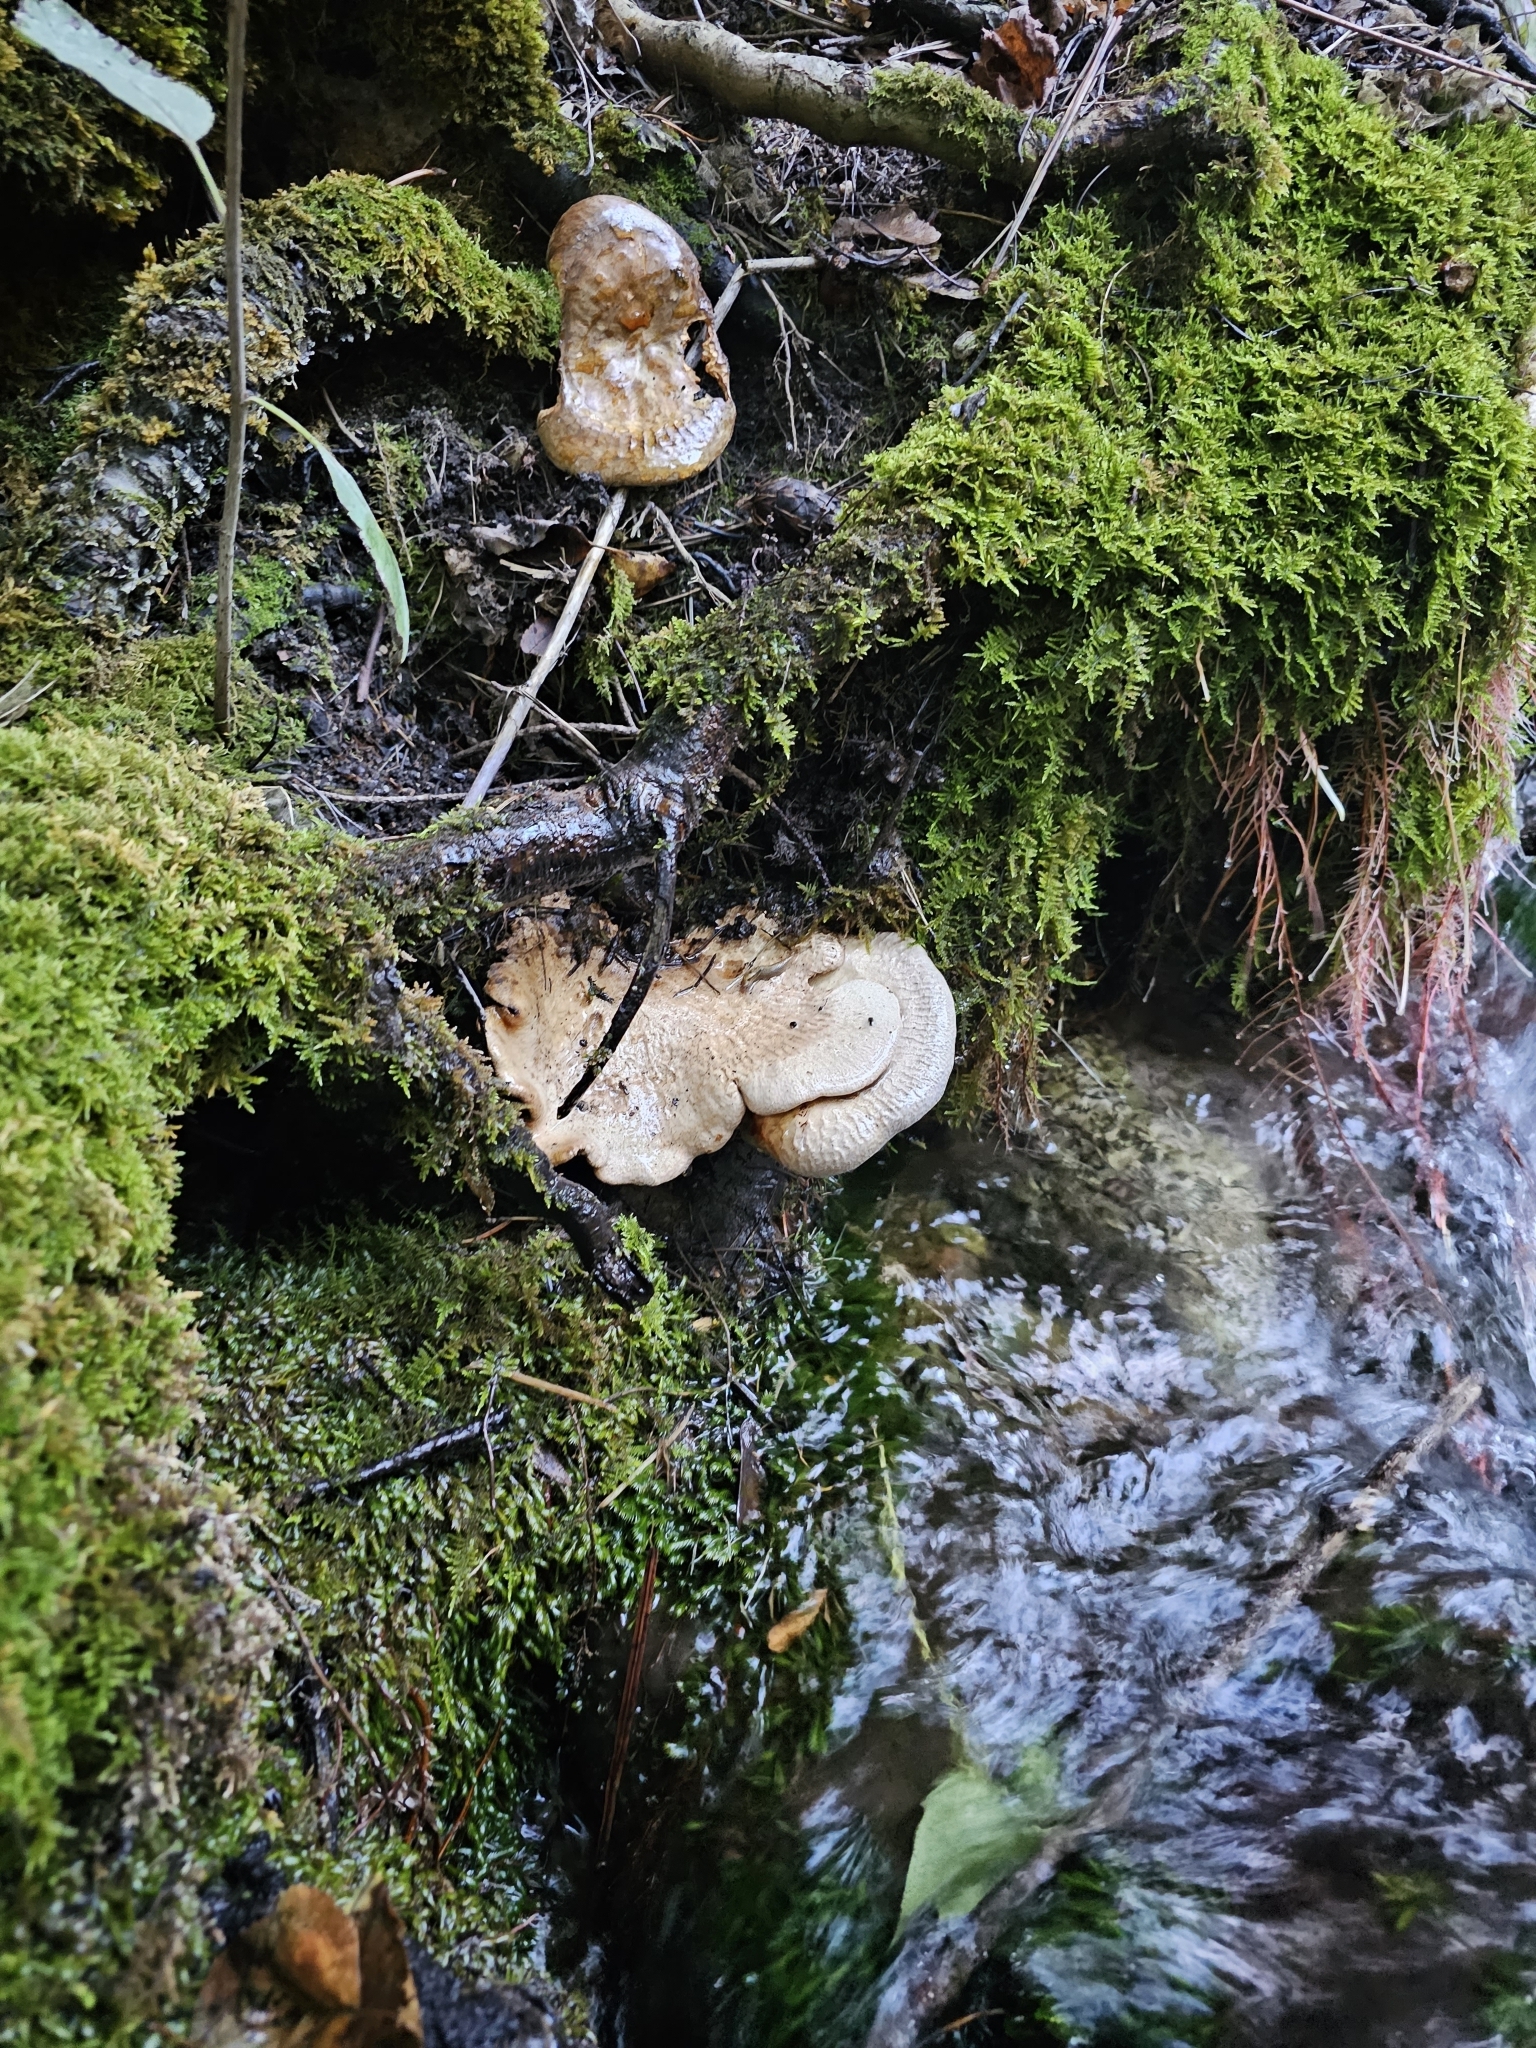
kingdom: Fungi
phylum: Basidiomycota
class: Agaricomycetes
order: Polyporales
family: Fomitopsidaceae
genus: Fomitopsis
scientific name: Fomitopsis betulina
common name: Birch polypore
